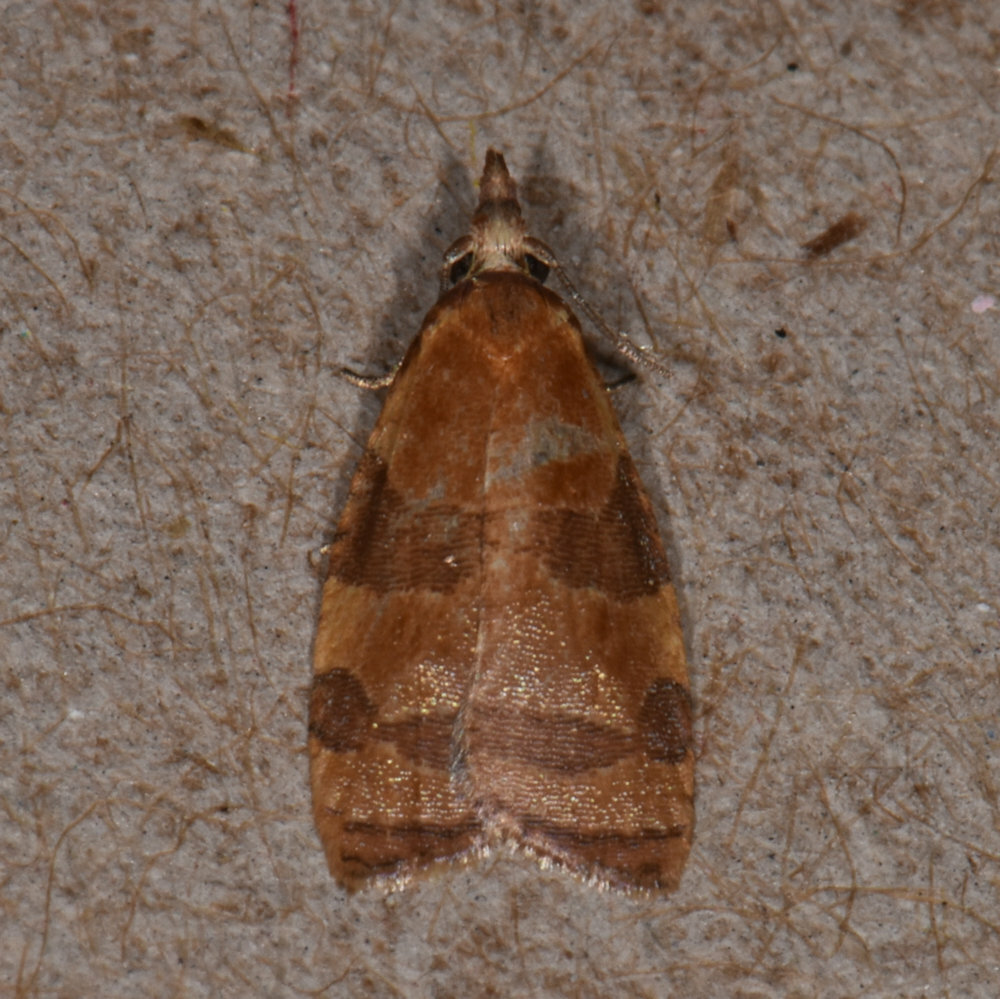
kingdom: Animalia
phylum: Arthropoda
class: Insecta
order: Lepidoptera
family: Tortricidae
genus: Cenopis
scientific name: Cenopis diluticostana
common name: Spring dead-leaf roller moth
